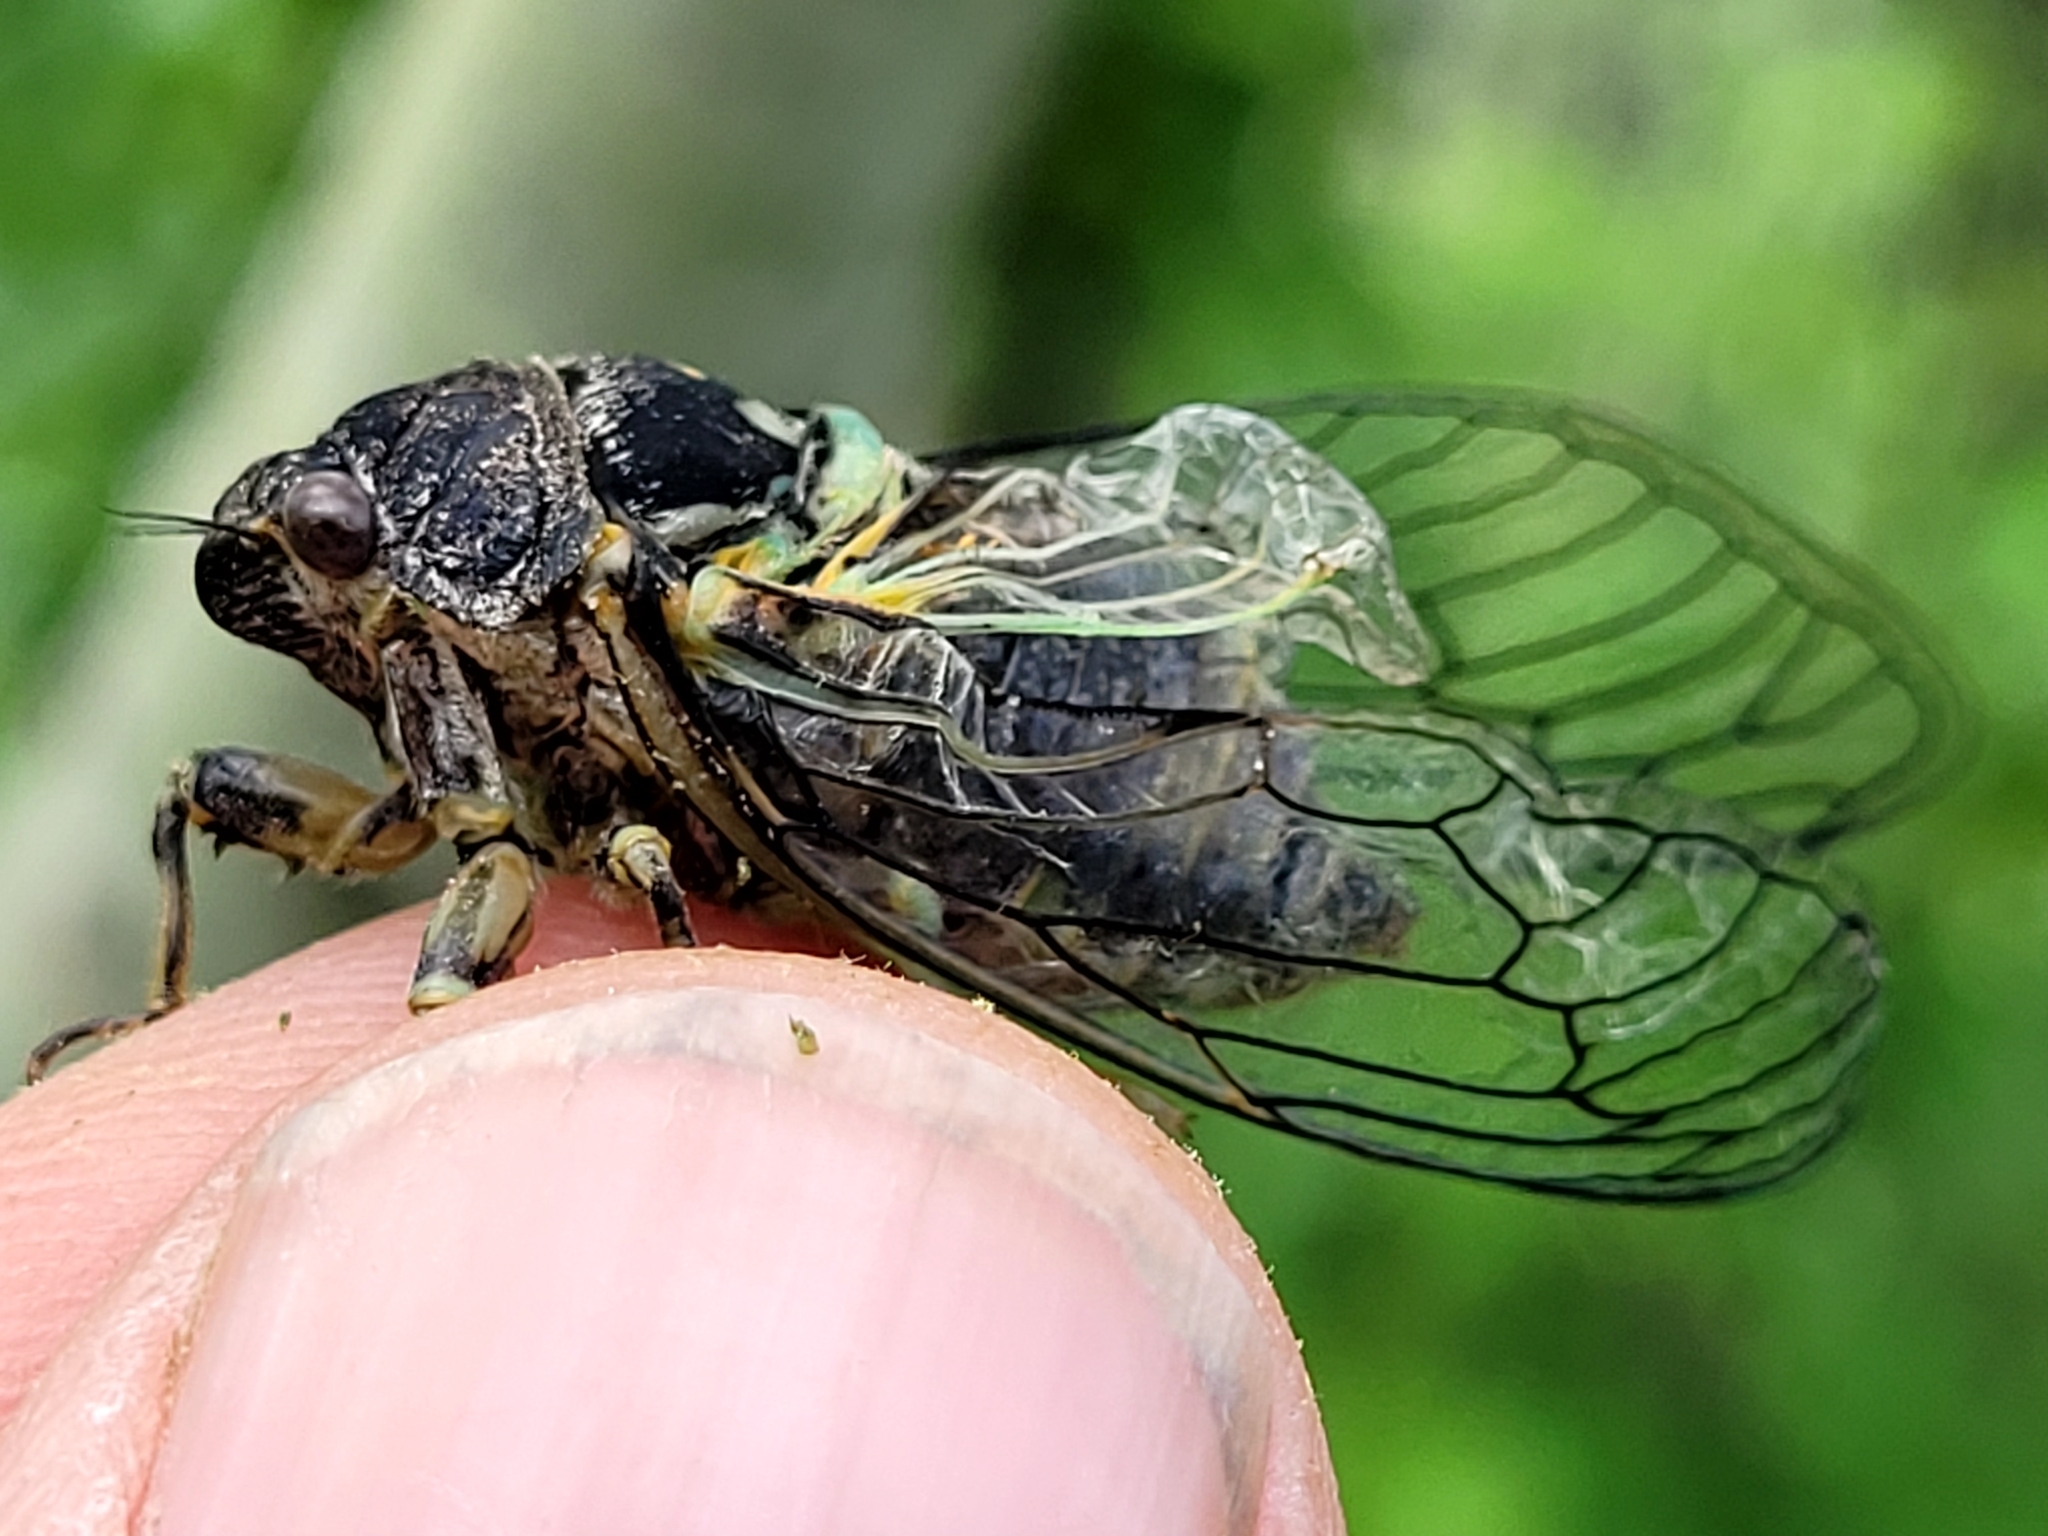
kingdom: Animalia
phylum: Arthropoda
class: Insecta
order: Hemiptera
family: Cicadidae
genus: Okanagana
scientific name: Okanagana canadensis
